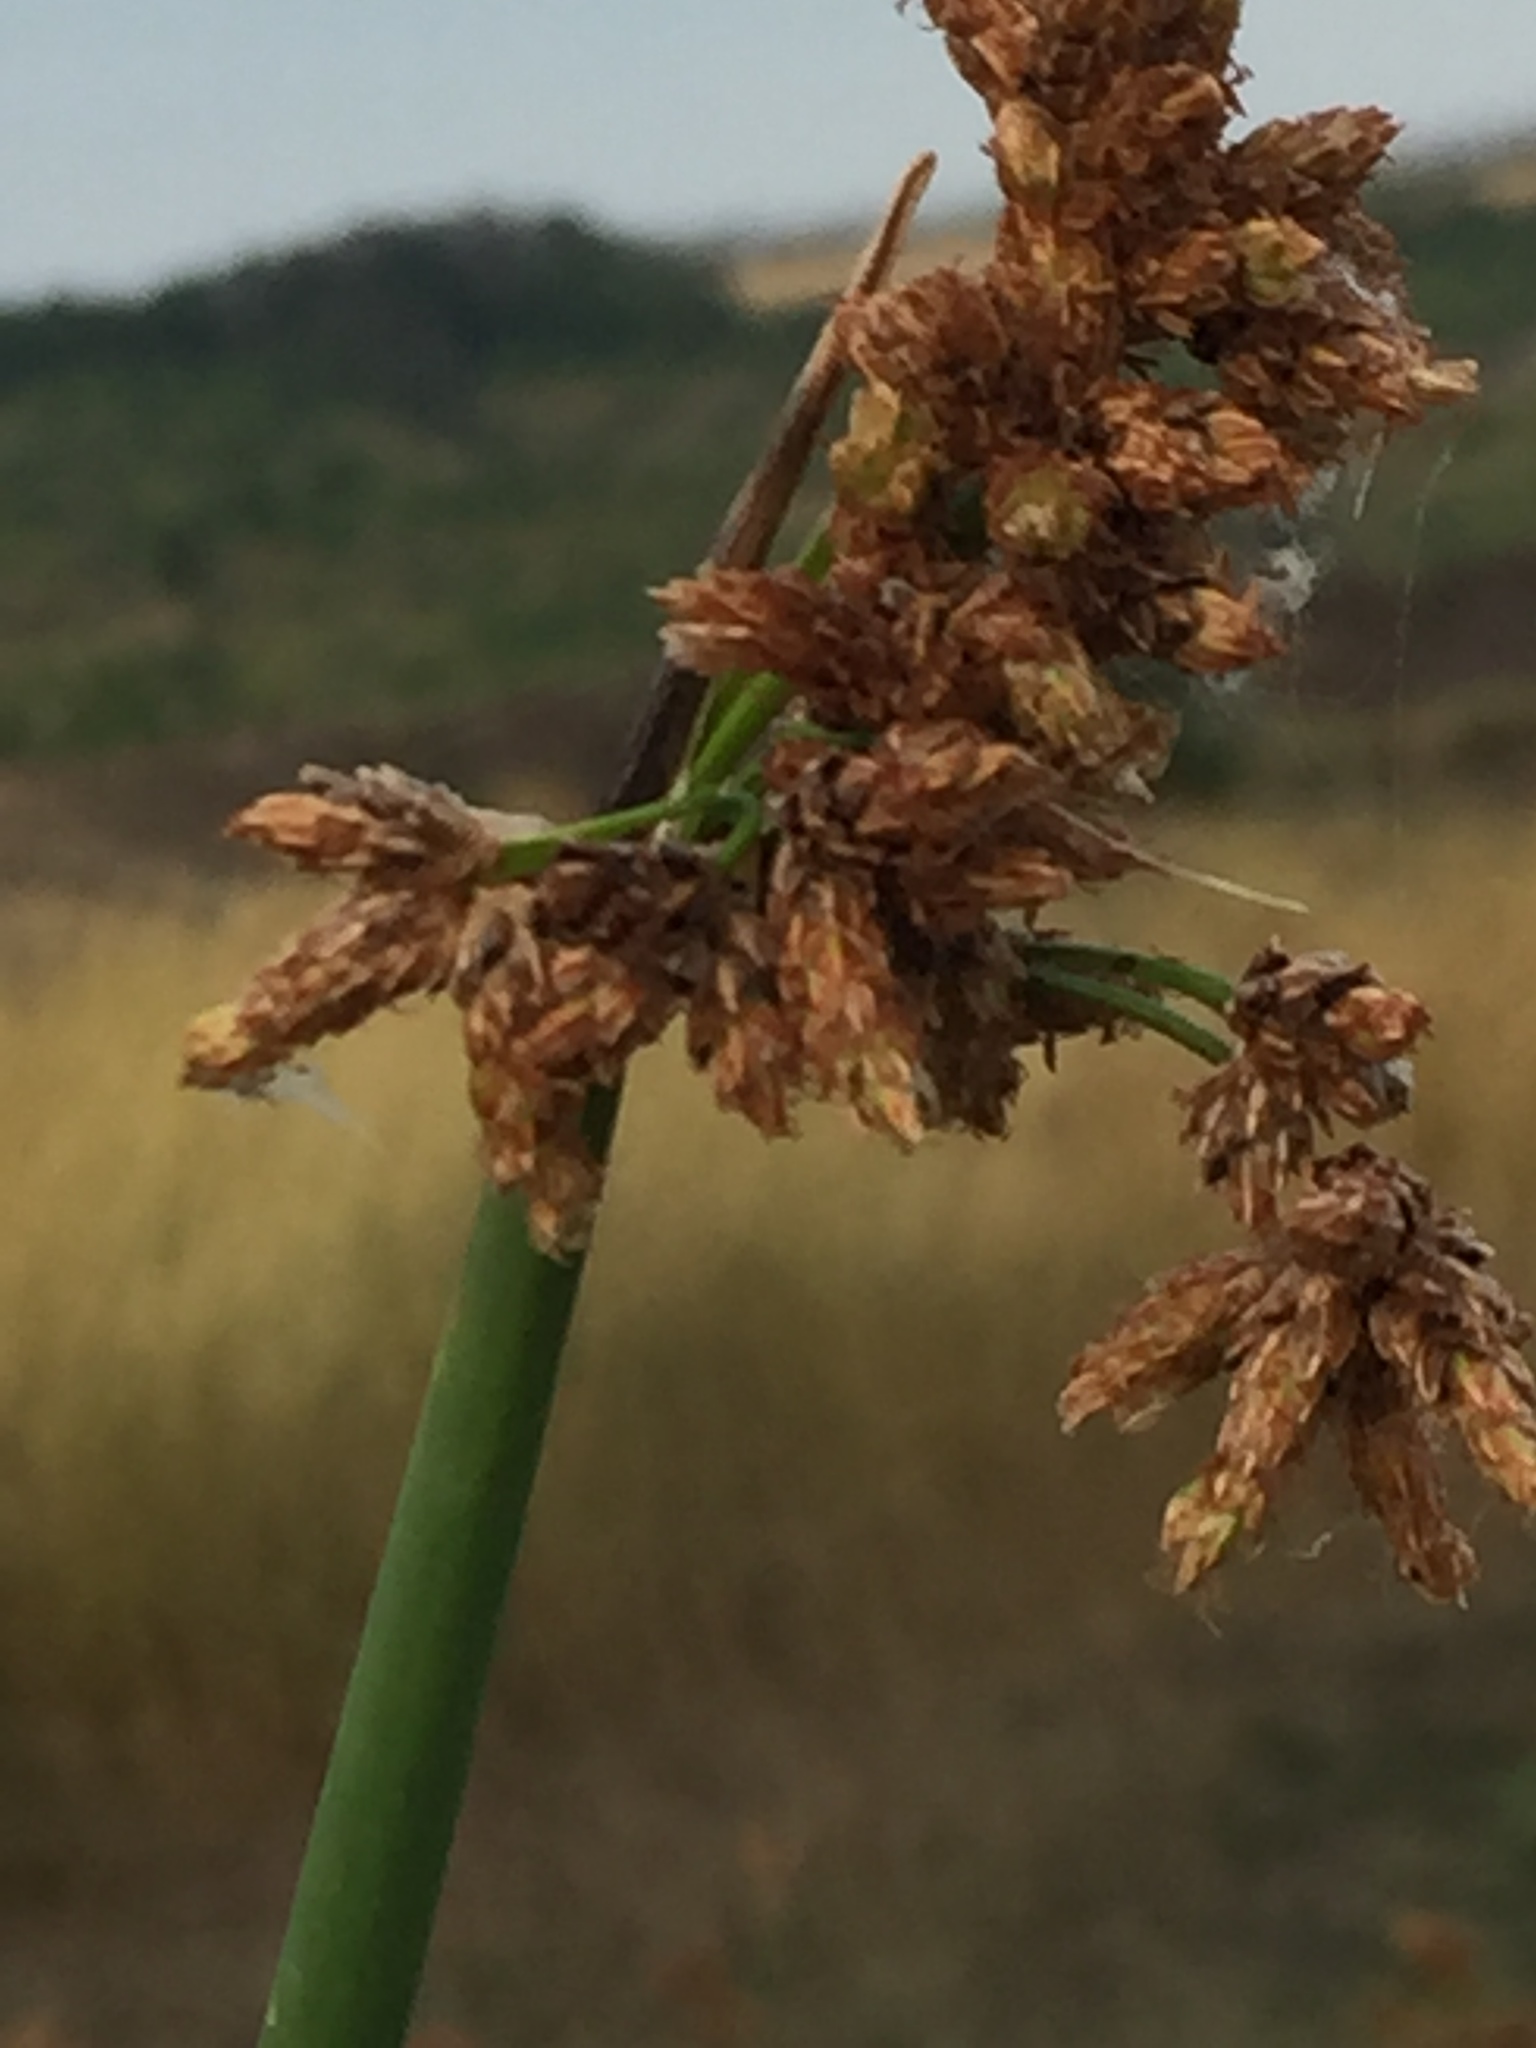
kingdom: Plantae
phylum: Tracheophyta
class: Liliopsida
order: Poales
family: Cyperaceae
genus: Schoenoplectus
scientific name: Schoenoplectus lacustris
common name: Common club-rush
